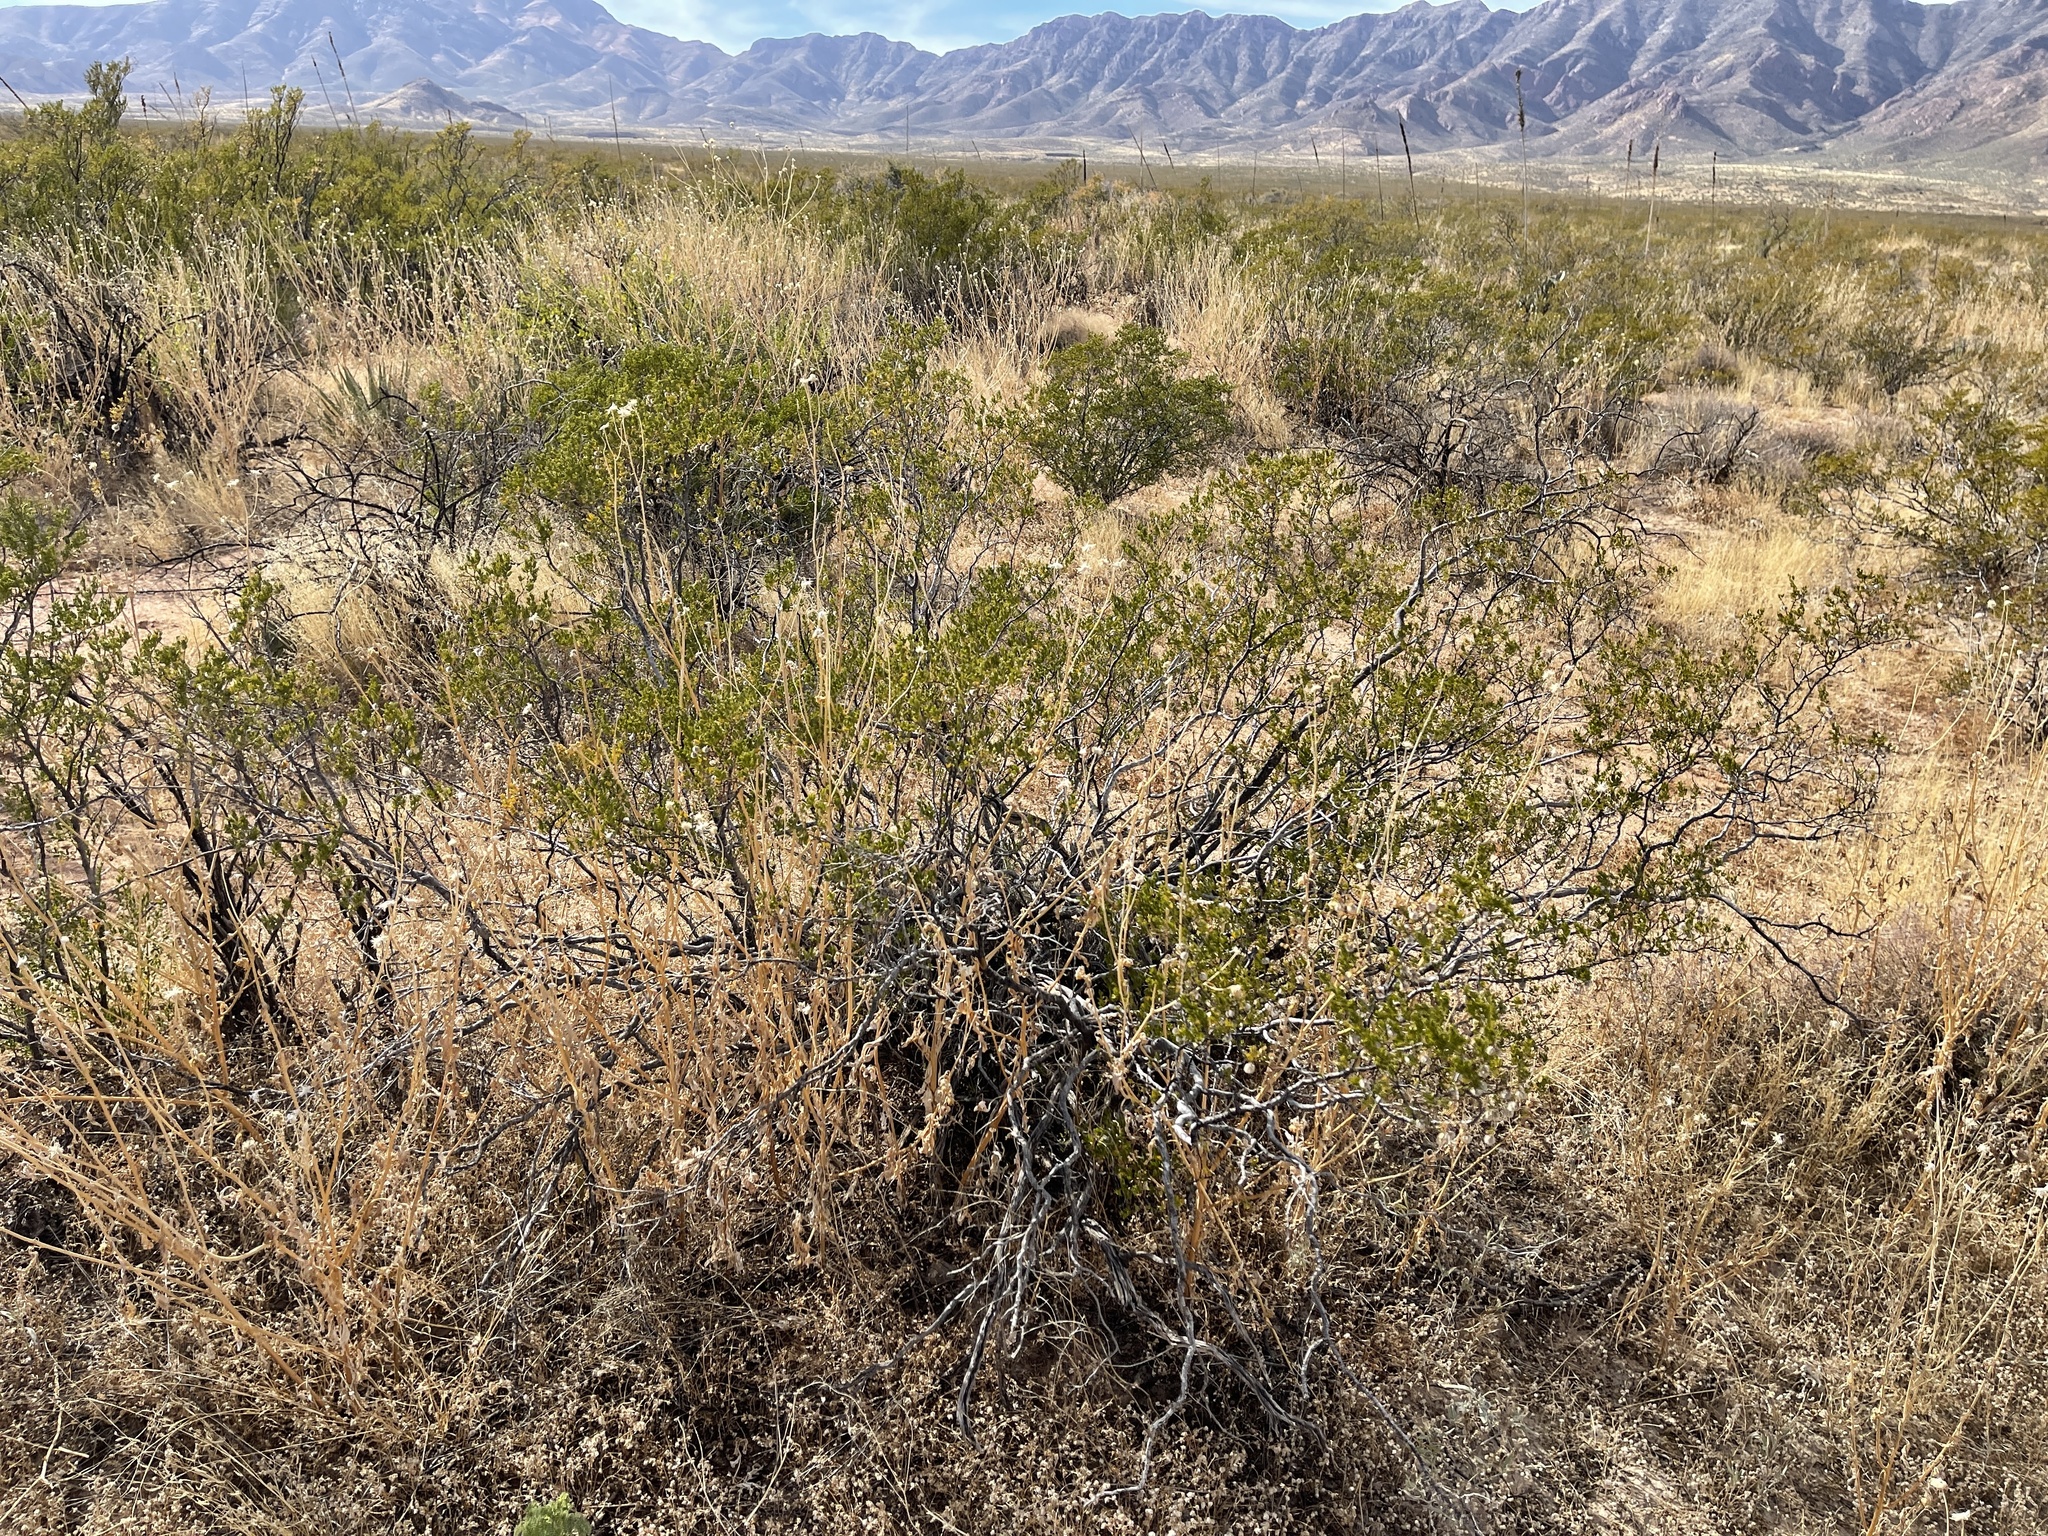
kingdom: Plantae
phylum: Tracheophyta
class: Magnoliopsida
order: Zygophyllales
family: Zygophyllaceae
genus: Larrea
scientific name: Larrea tridentata
